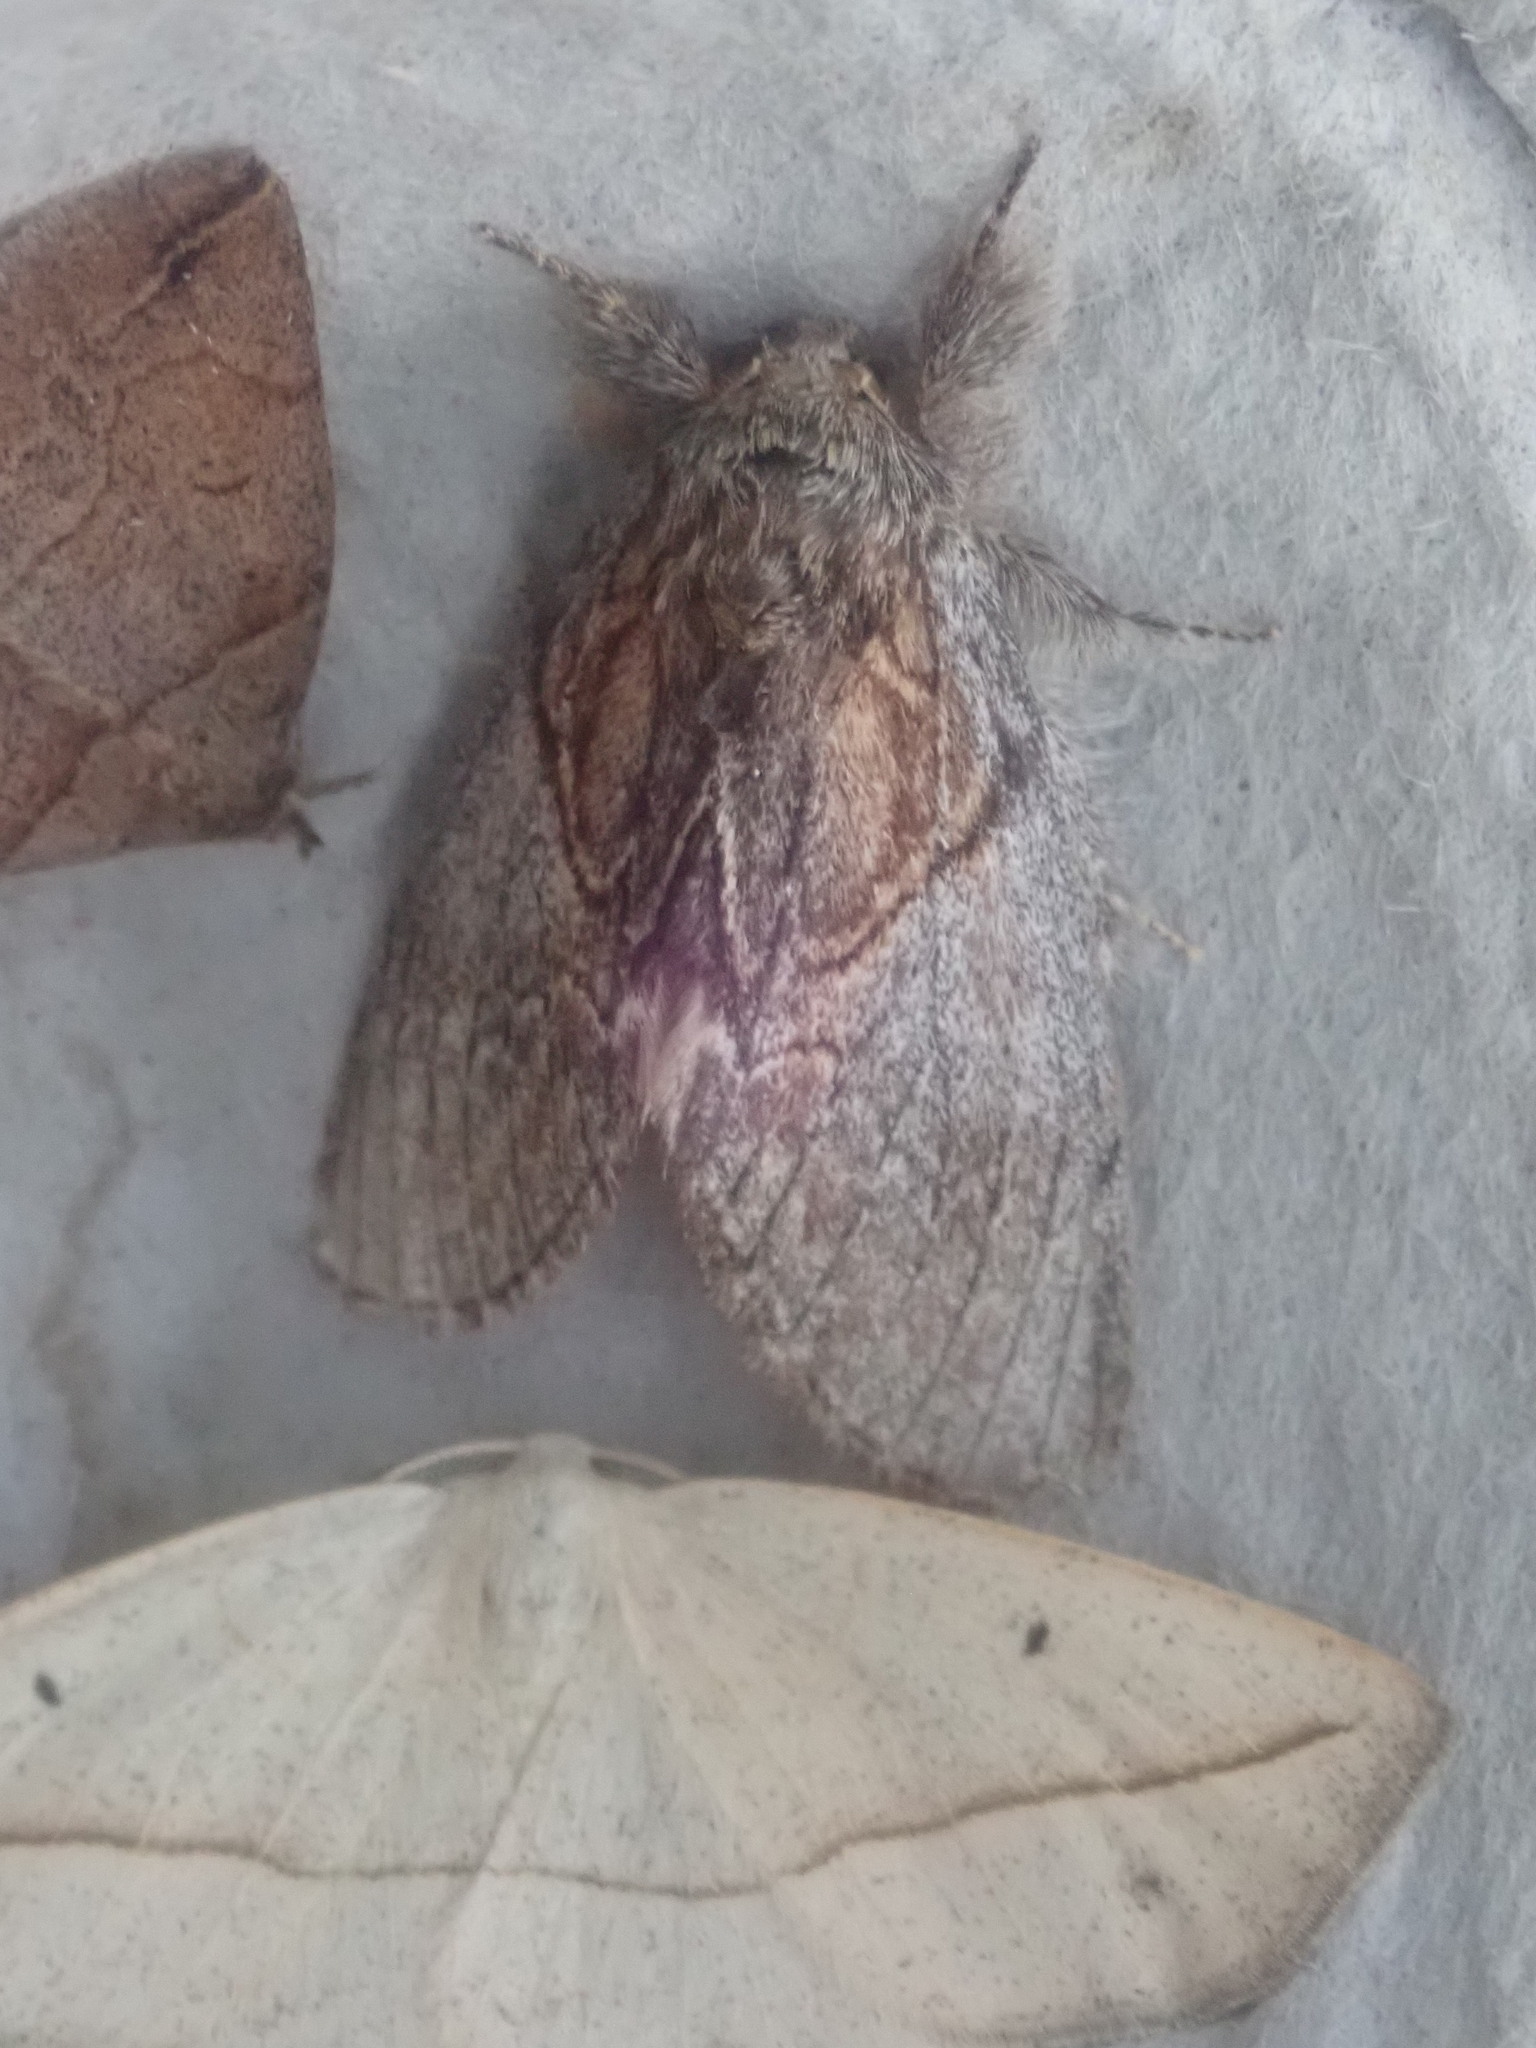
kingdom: Animalia
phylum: Arthropoda
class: Insecta
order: Lepidoptera
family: Notodontidae
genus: Peridea
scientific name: Peridea basitriens
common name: Oval-based prominent
